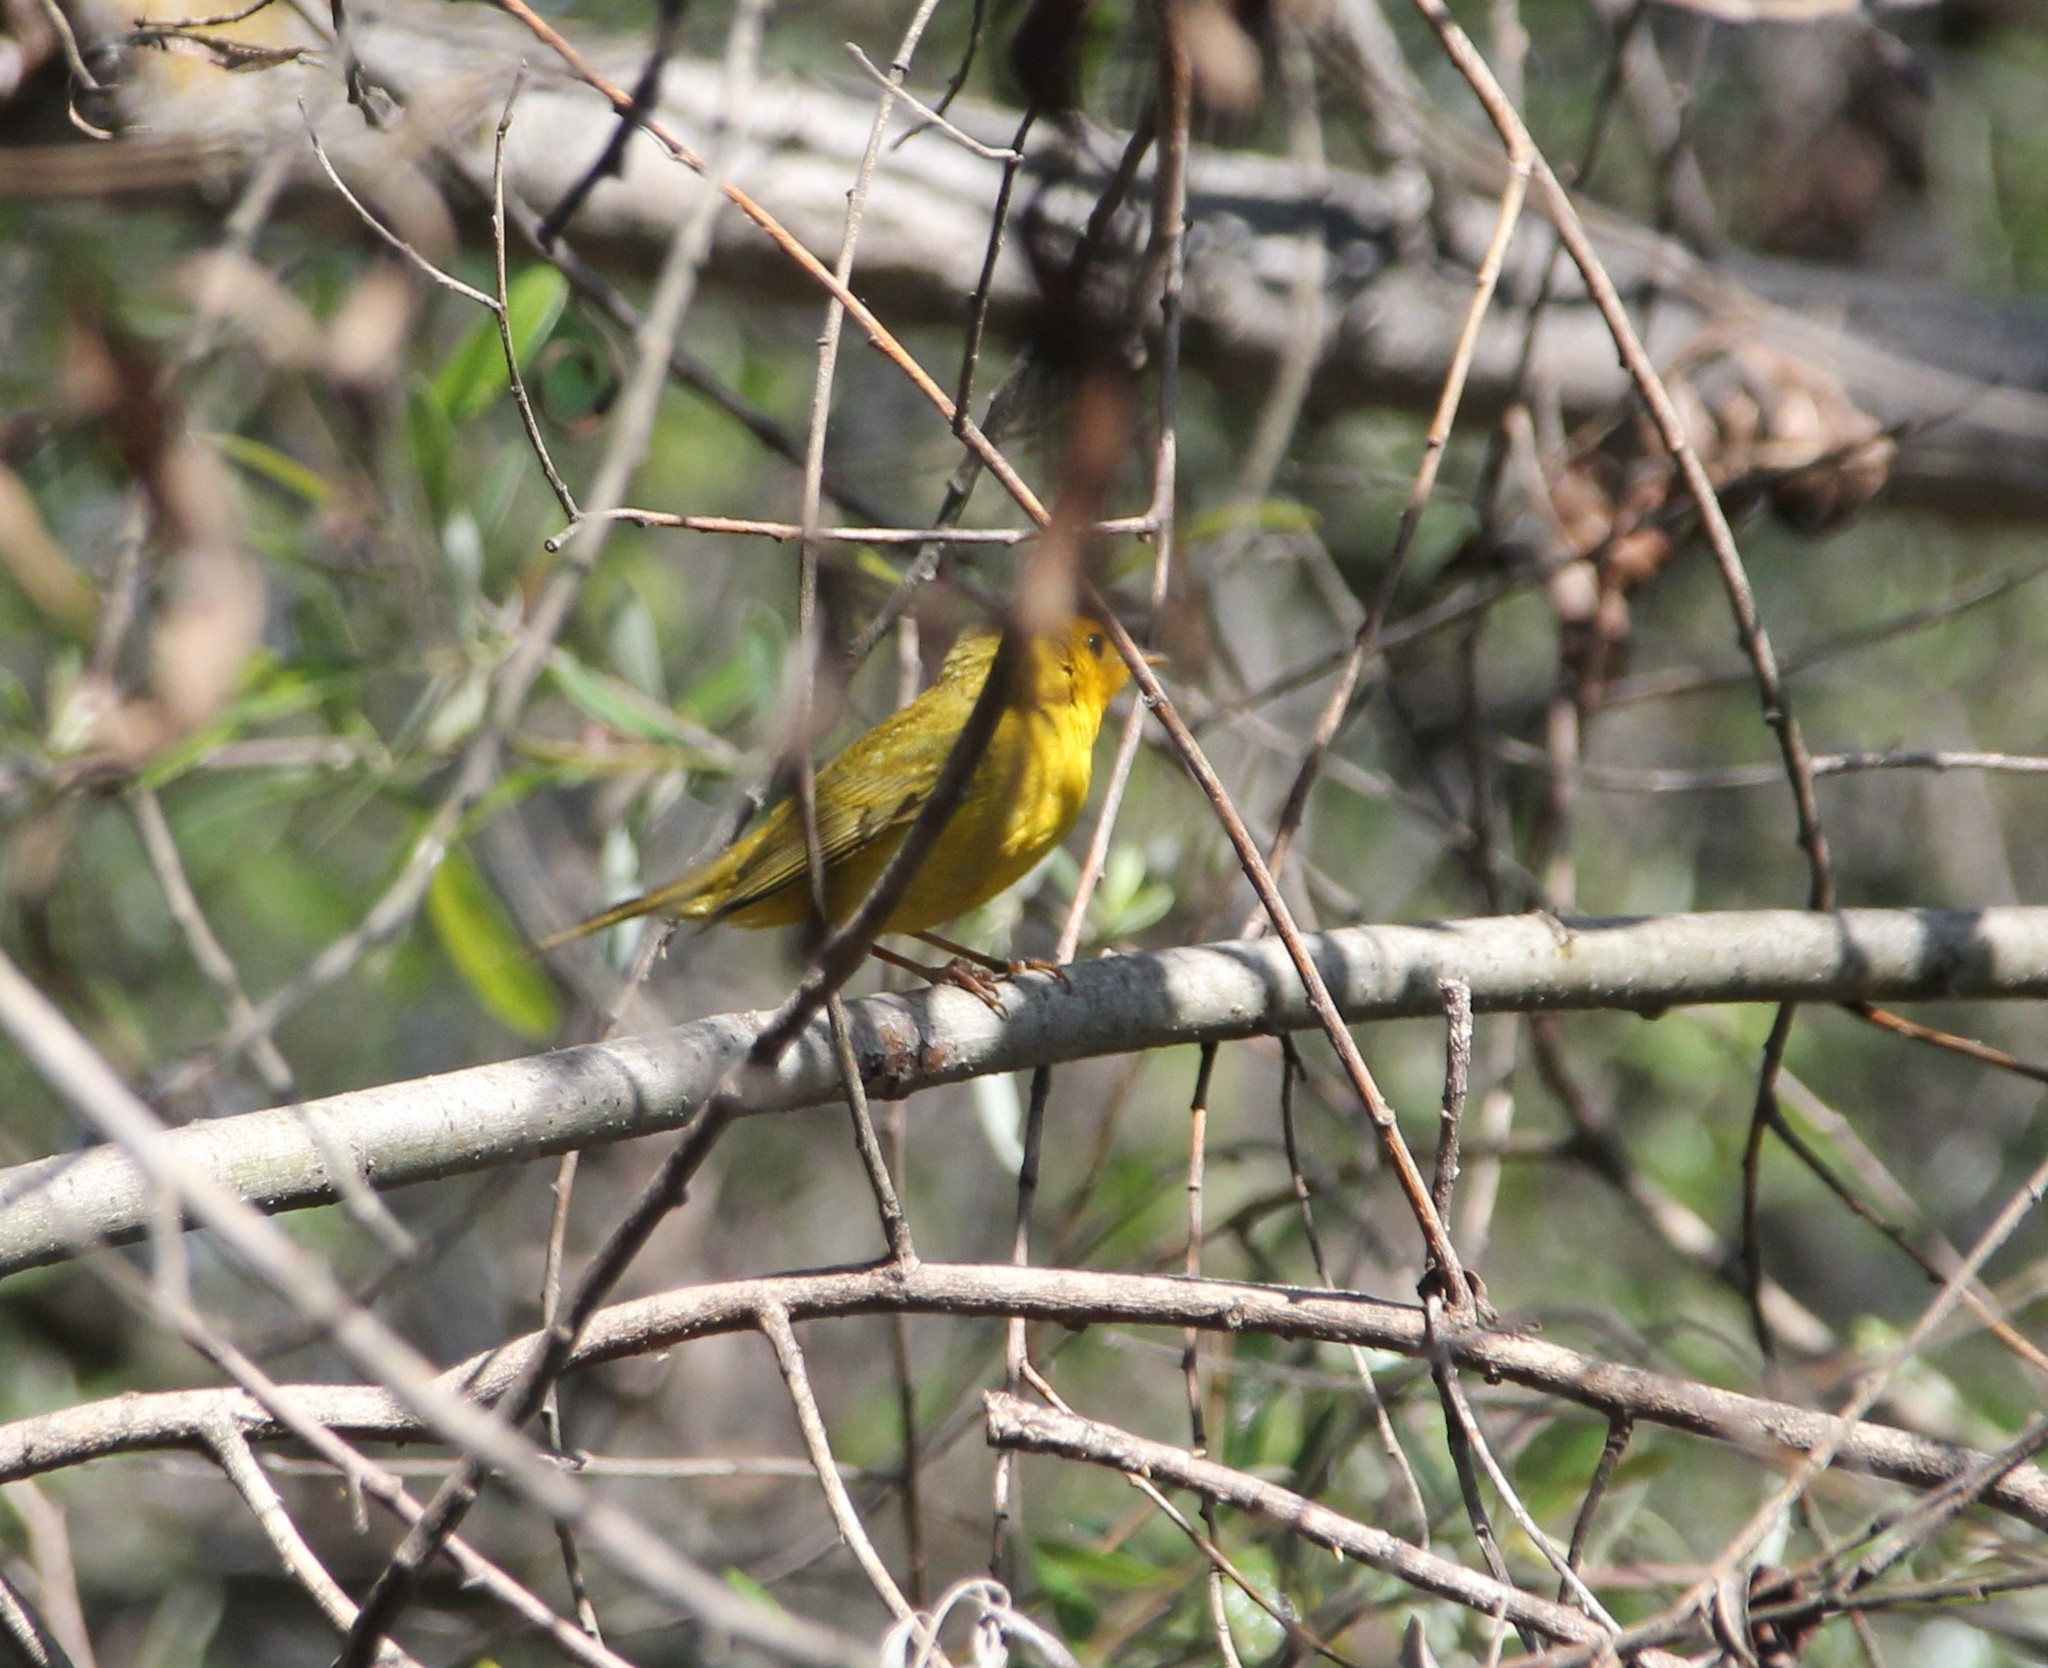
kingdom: Animalia
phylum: Chordata
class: Aves
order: Passeriformes
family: Parulidae
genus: Cardellina
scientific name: Cardellina pusilla
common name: Wilson's warbler
